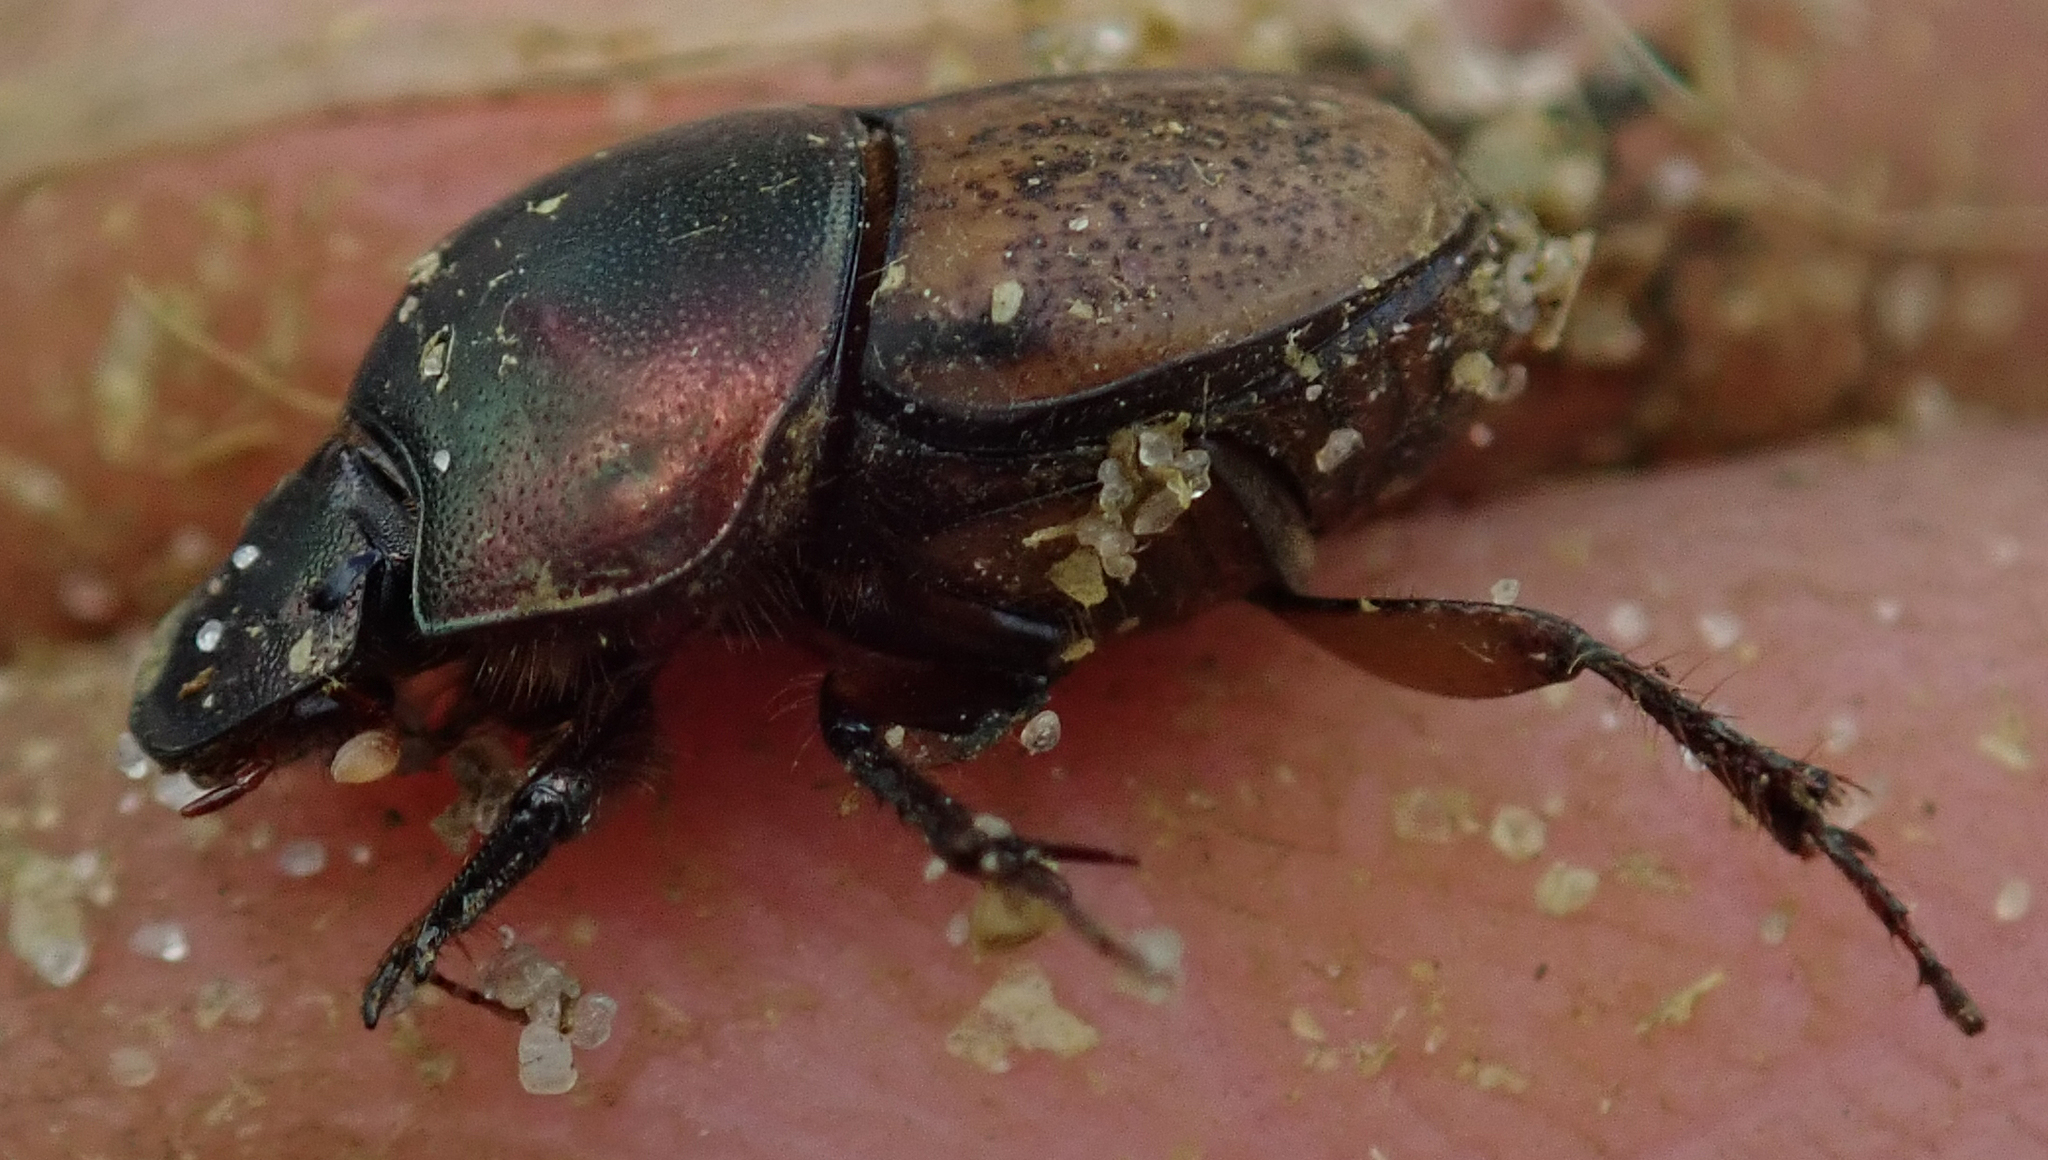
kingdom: Animalia
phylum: Arthropoda
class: Insecta
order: Coleoptera
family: Scarabaeidae
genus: Onthophagus
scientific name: Onthophagus plebejus
